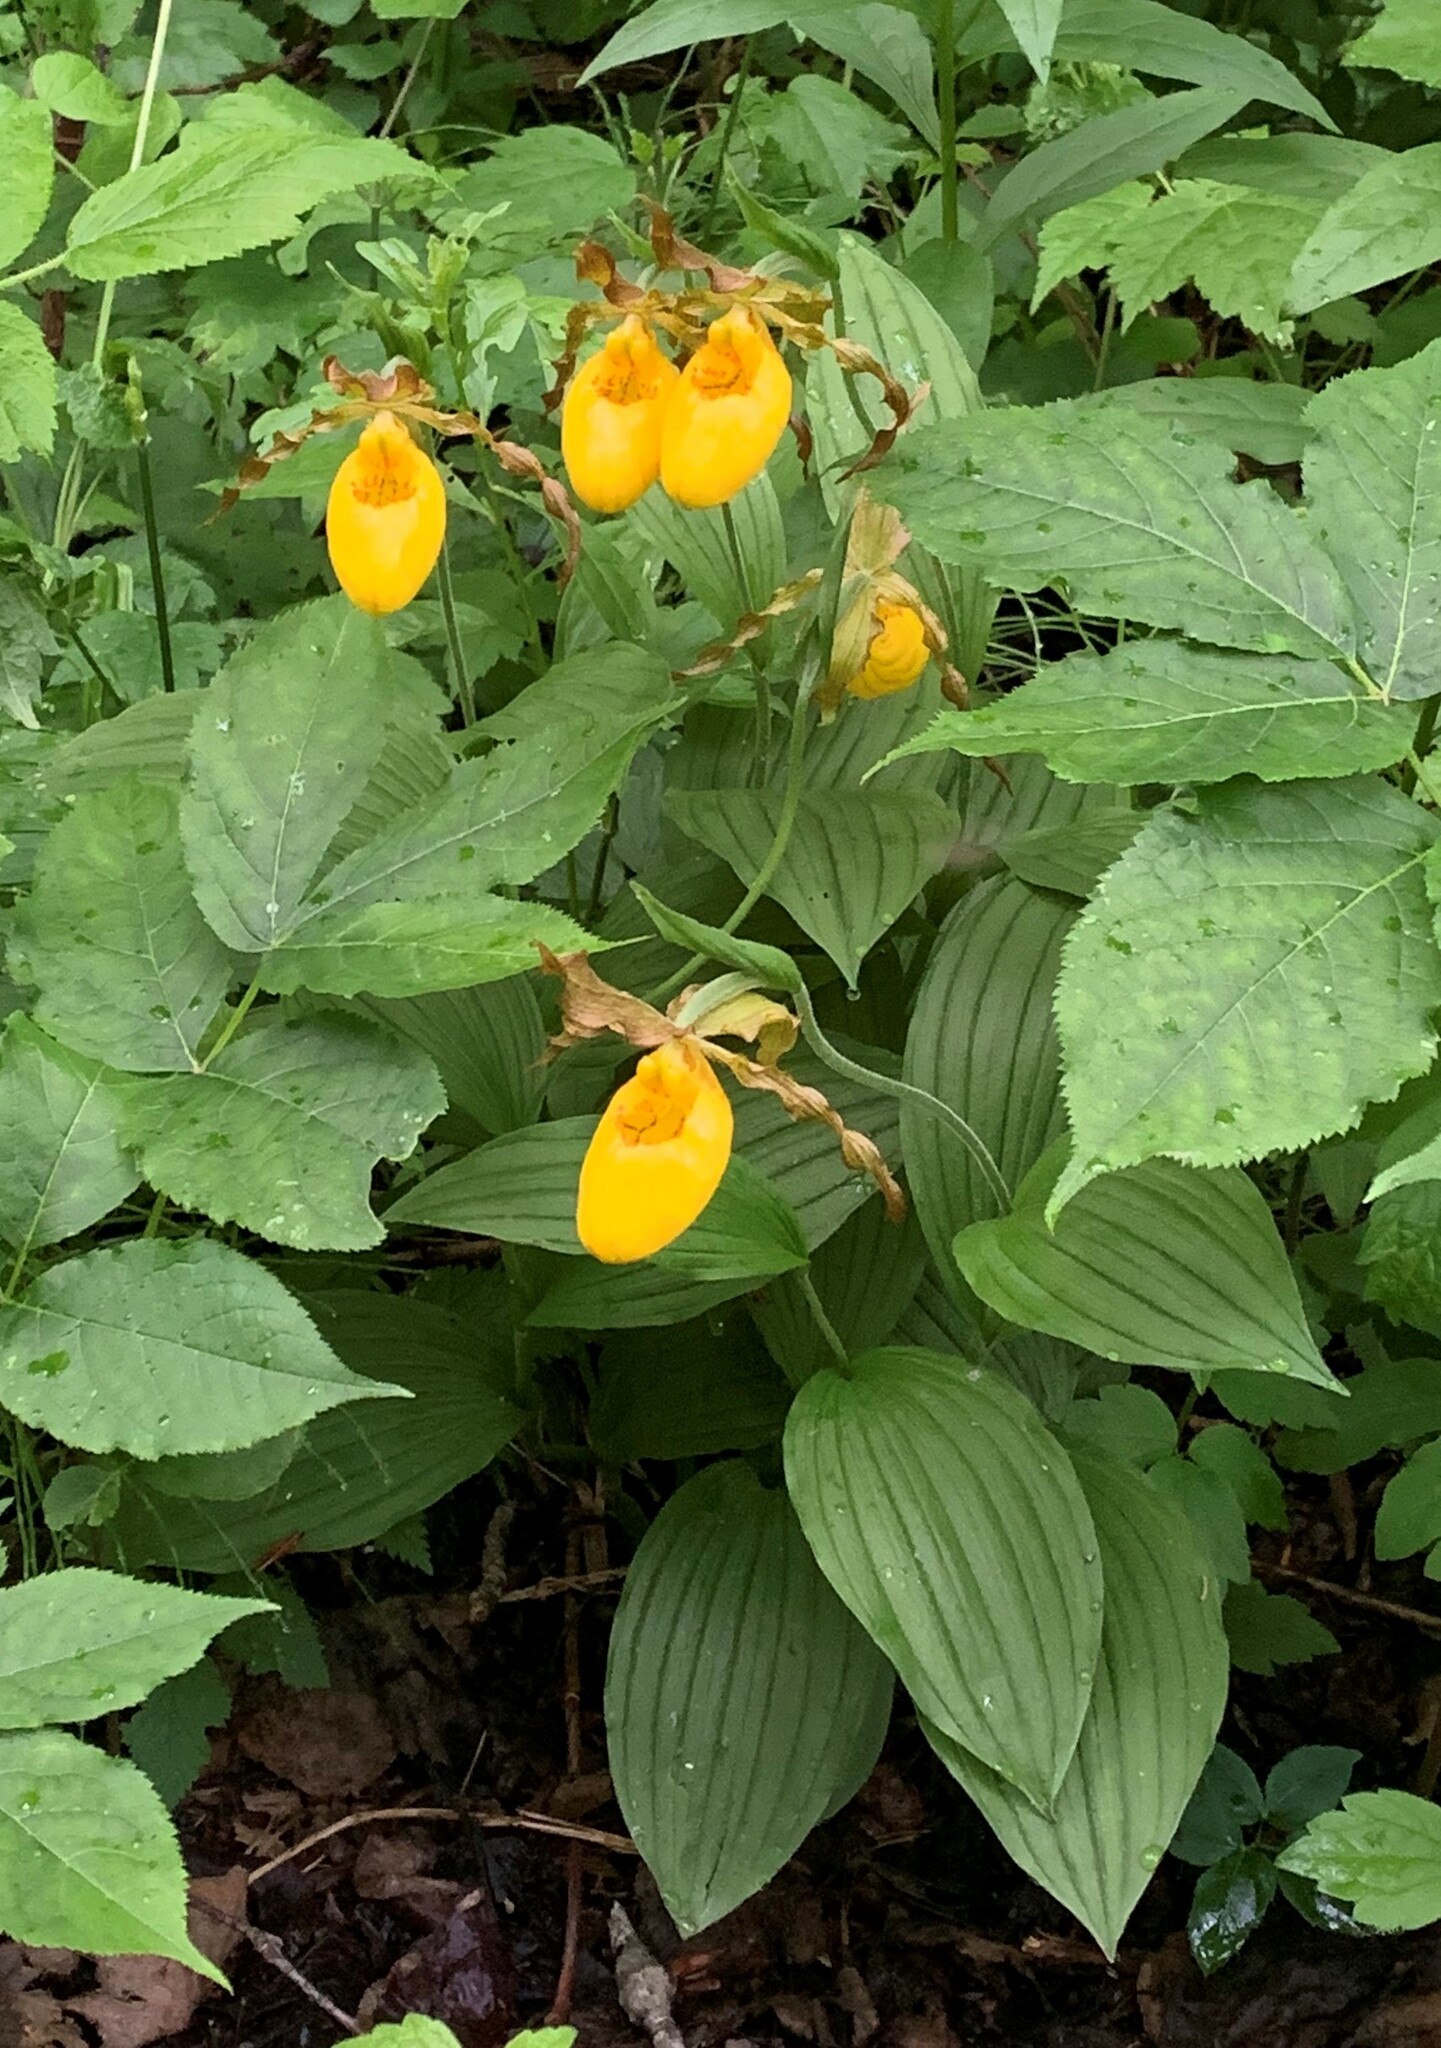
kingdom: Plantae
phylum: Tracheophyta
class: Liliopsida
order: Asparagales
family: Orchidaceae
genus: Cypripedium
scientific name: Cypripedium parviflorum
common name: American yellow lady's-slipper
